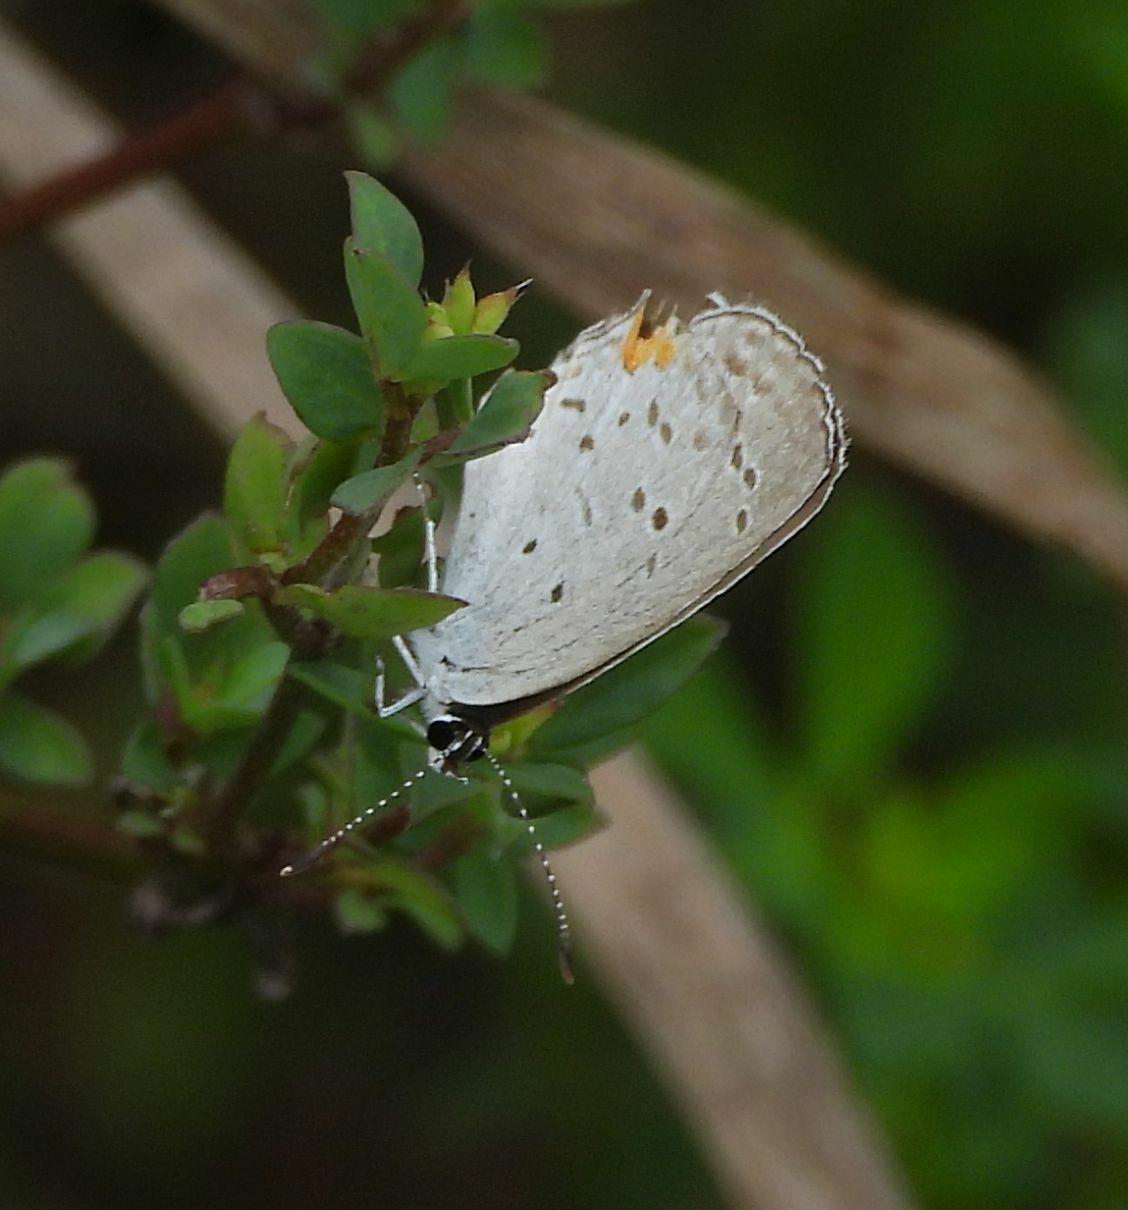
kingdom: Animalia
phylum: Arthropoda
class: Insecta
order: Lepidoptera
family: Lycaenidae
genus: Elkalyce
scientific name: Elkalyce comyntas
